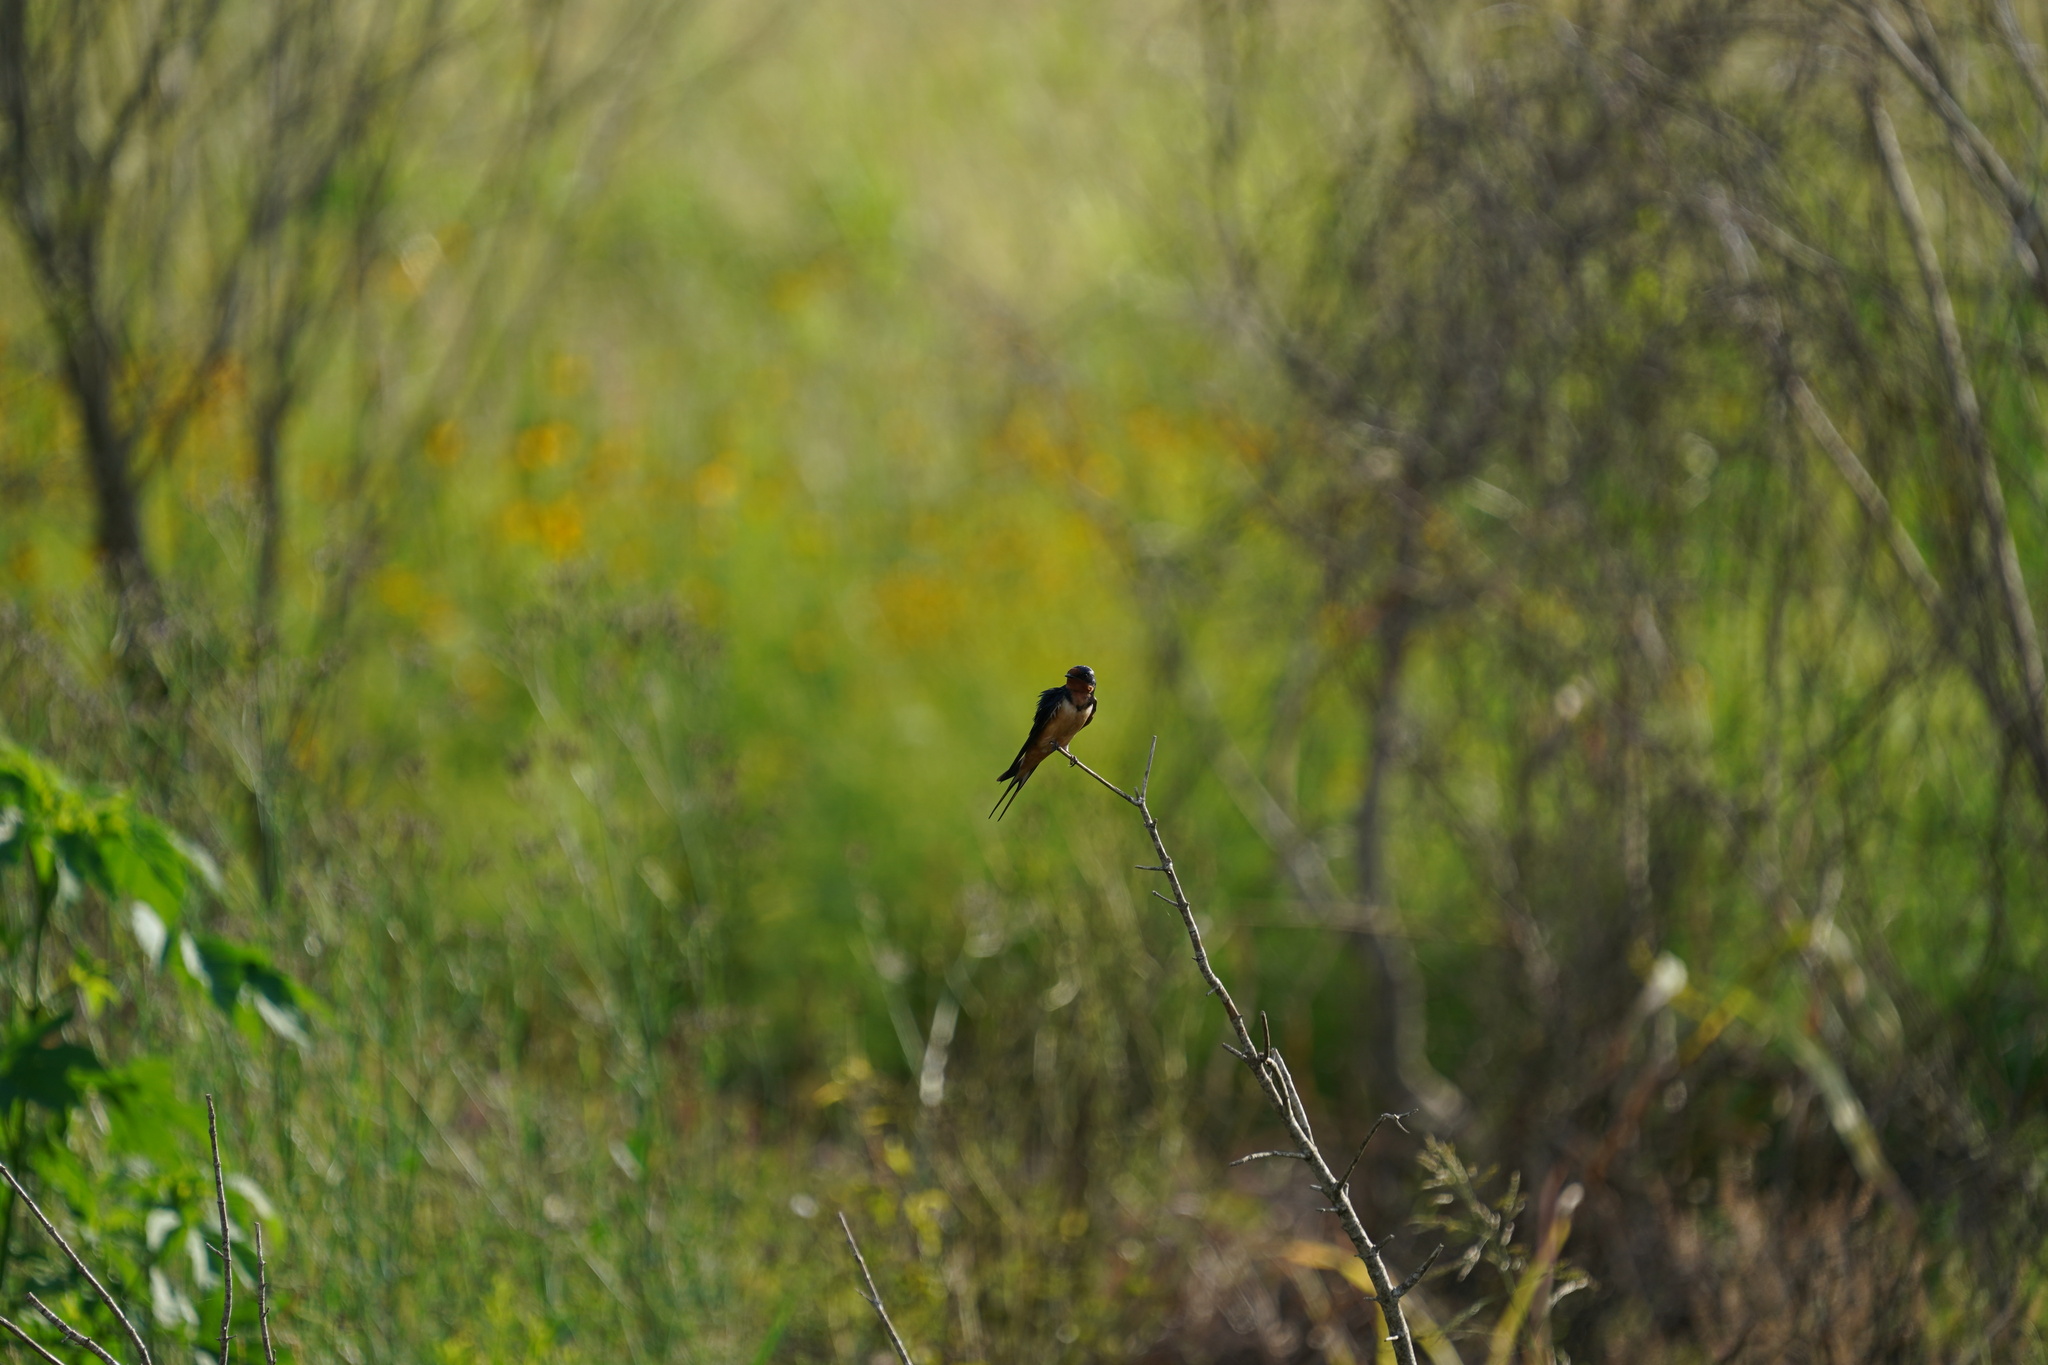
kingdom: Animalia
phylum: Chordata
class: Aves
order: Passeriformes
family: Hirundinidae
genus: Hirundo
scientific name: Hirundo rustica
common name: Barn swallow
